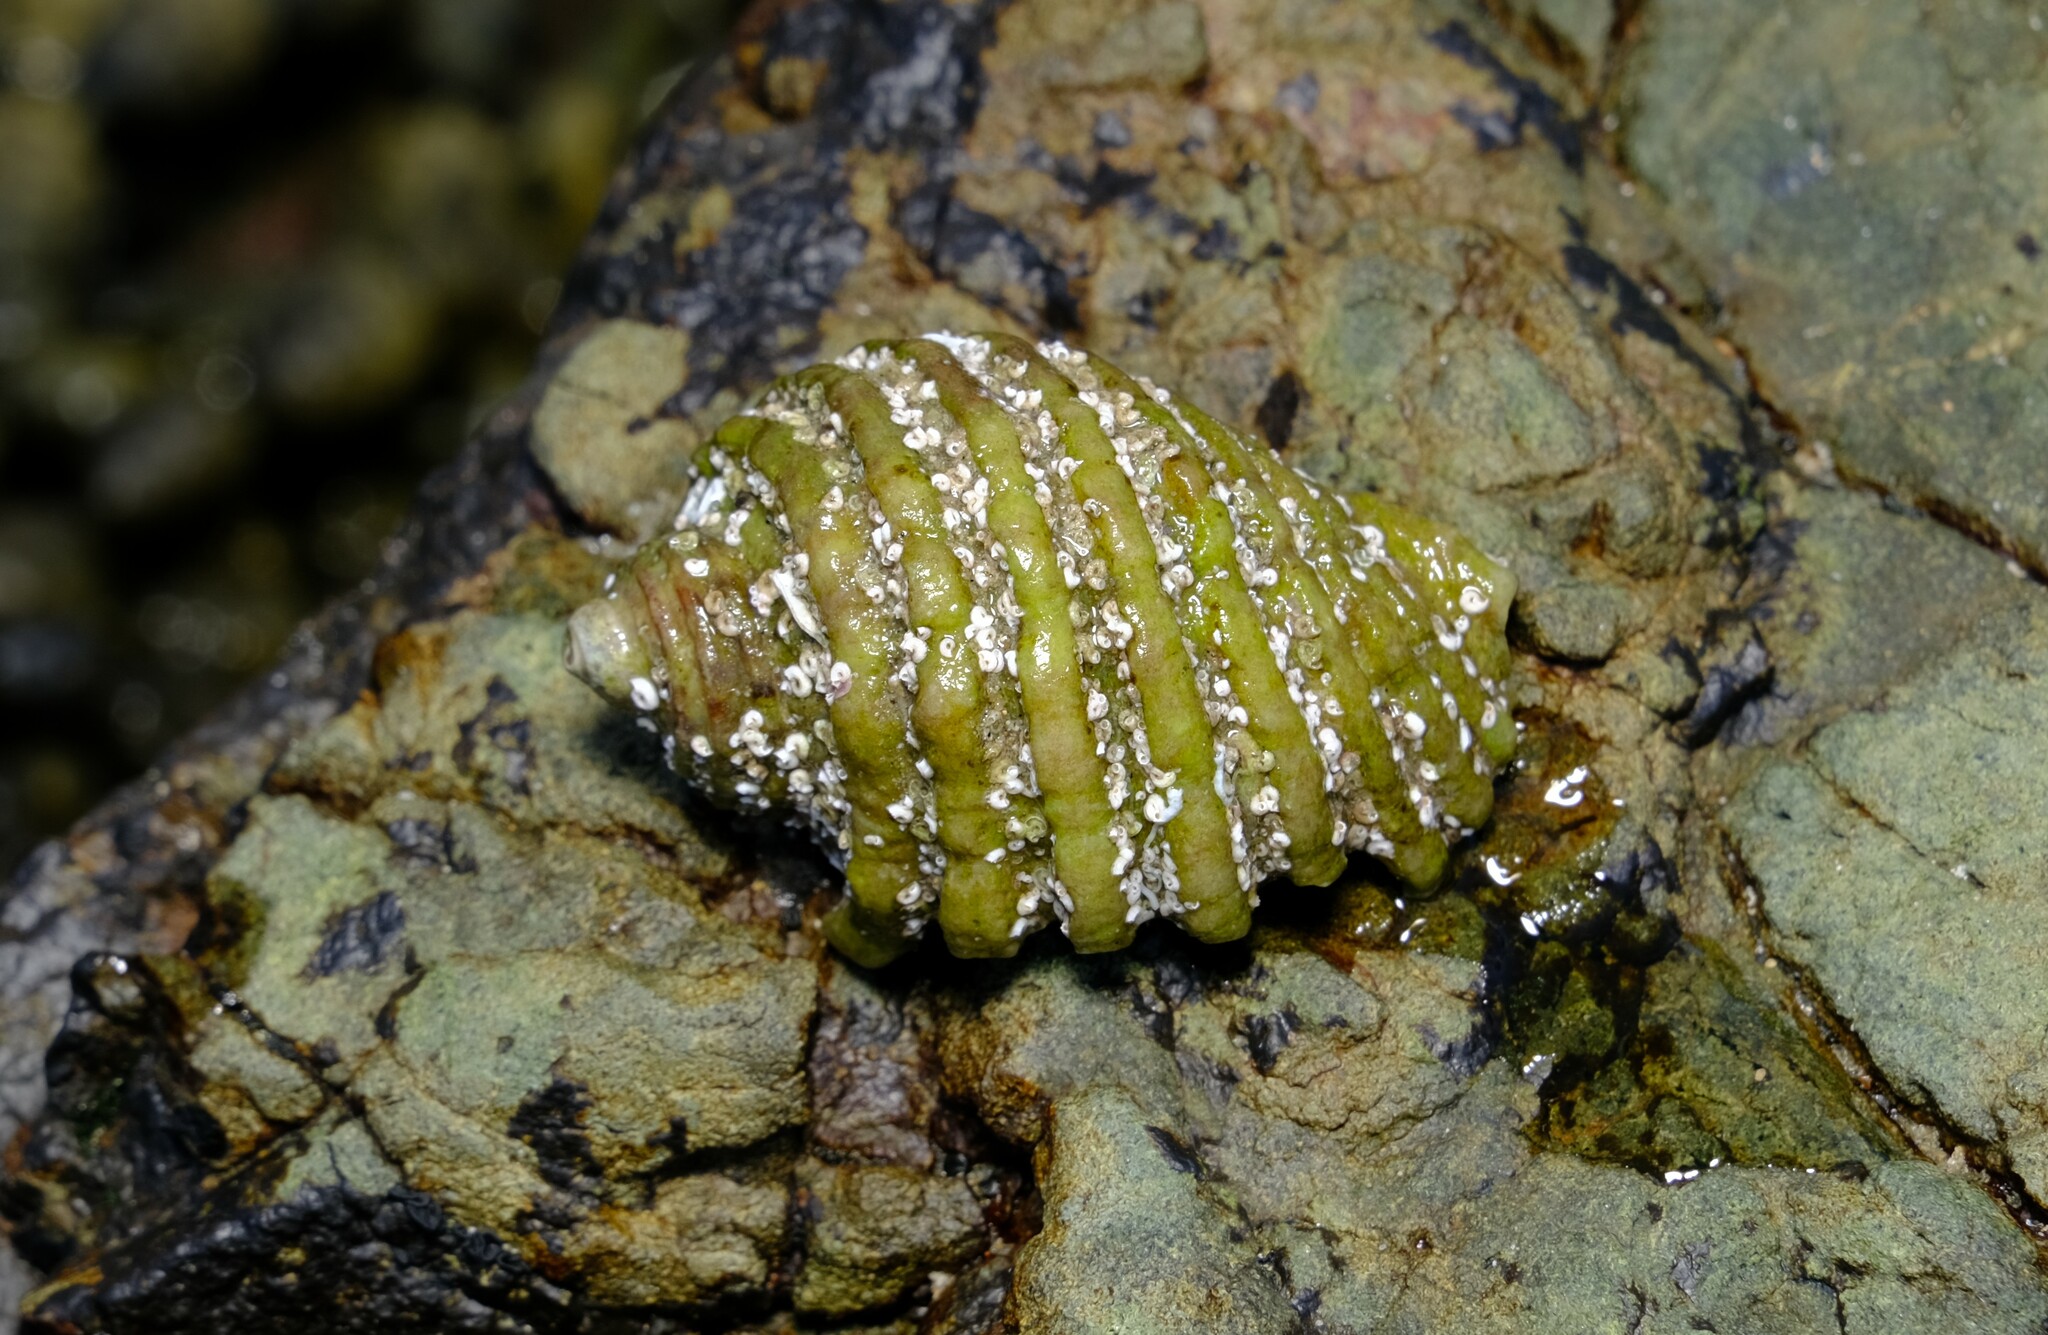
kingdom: Animalia
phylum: Mollusca
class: Gastropoda
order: Neogastropoda
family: Muricidae
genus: Dicathais
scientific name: Dicathais orbita
